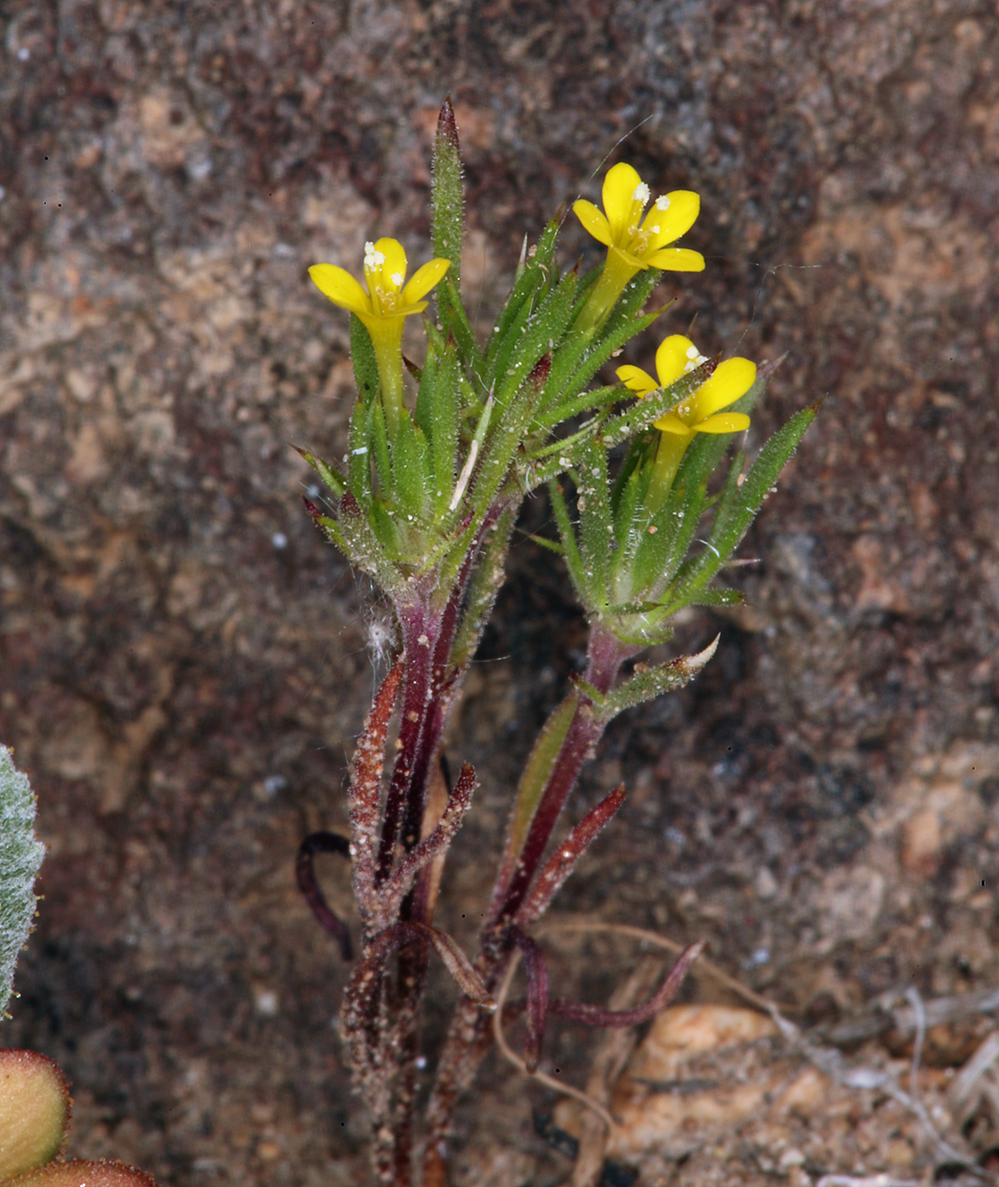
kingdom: Plantae
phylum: Tracheophyta
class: Magnoliopsida
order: Ericales
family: Polemoniaceae
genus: Navarretia
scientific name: Navarretia breweri
